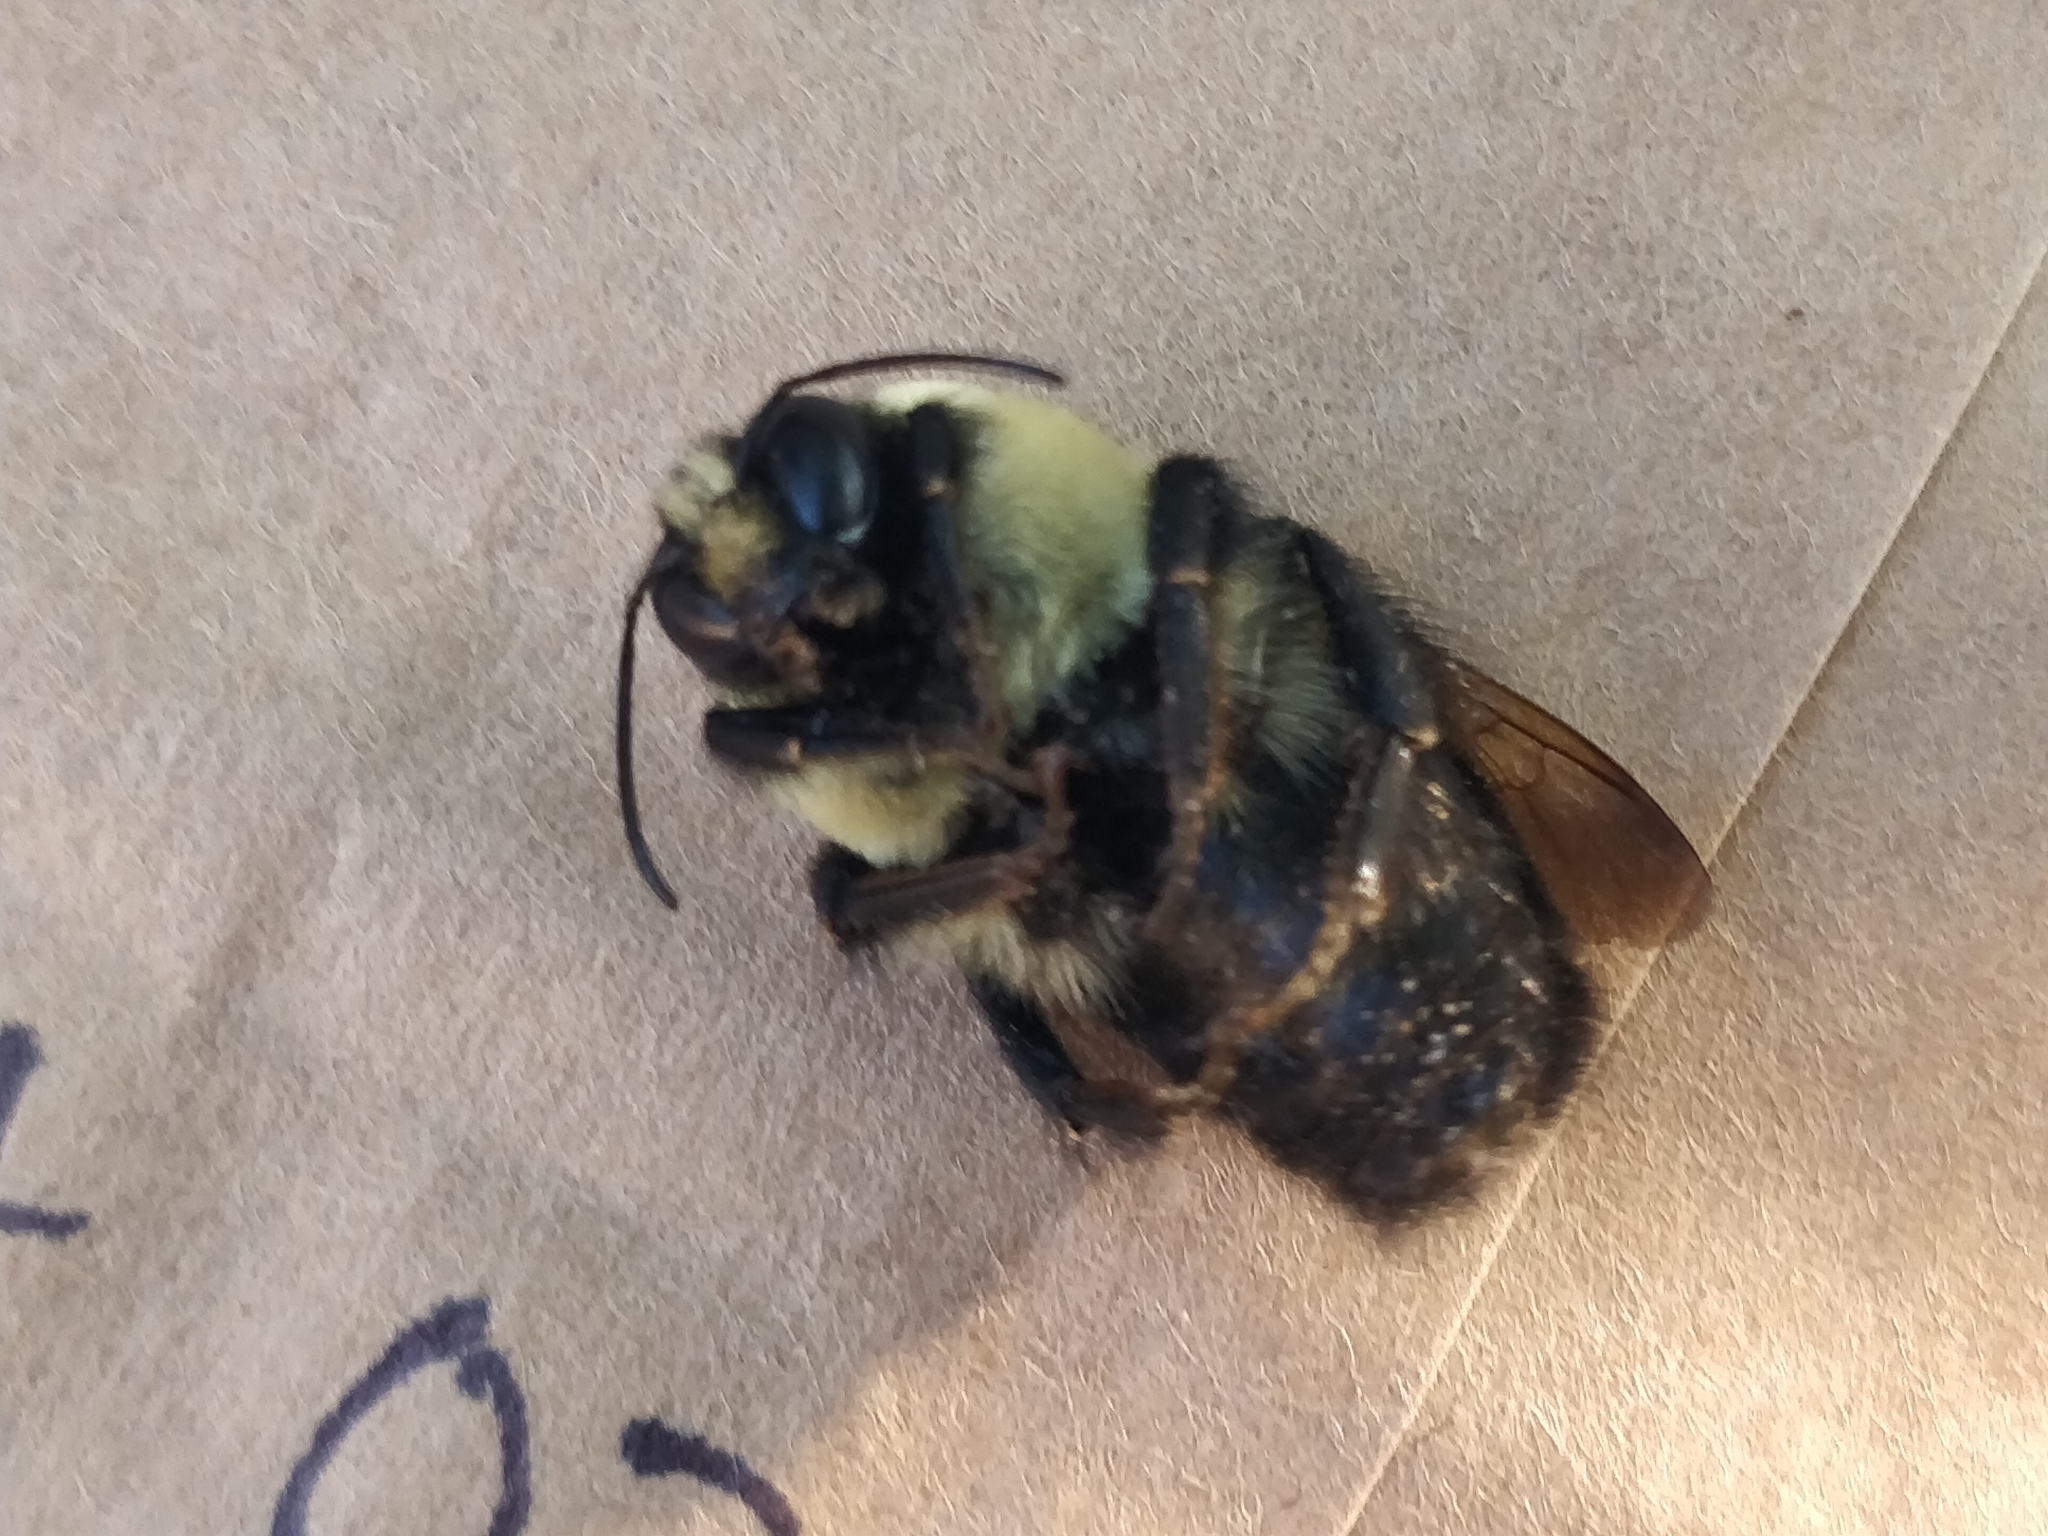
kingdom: Animalia
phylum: Arthropoda
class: Insecta
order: Hymenoptera
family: Apidae
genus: Bombus
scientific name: Bombus griseocollis
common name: Brown-belted bumble bee
